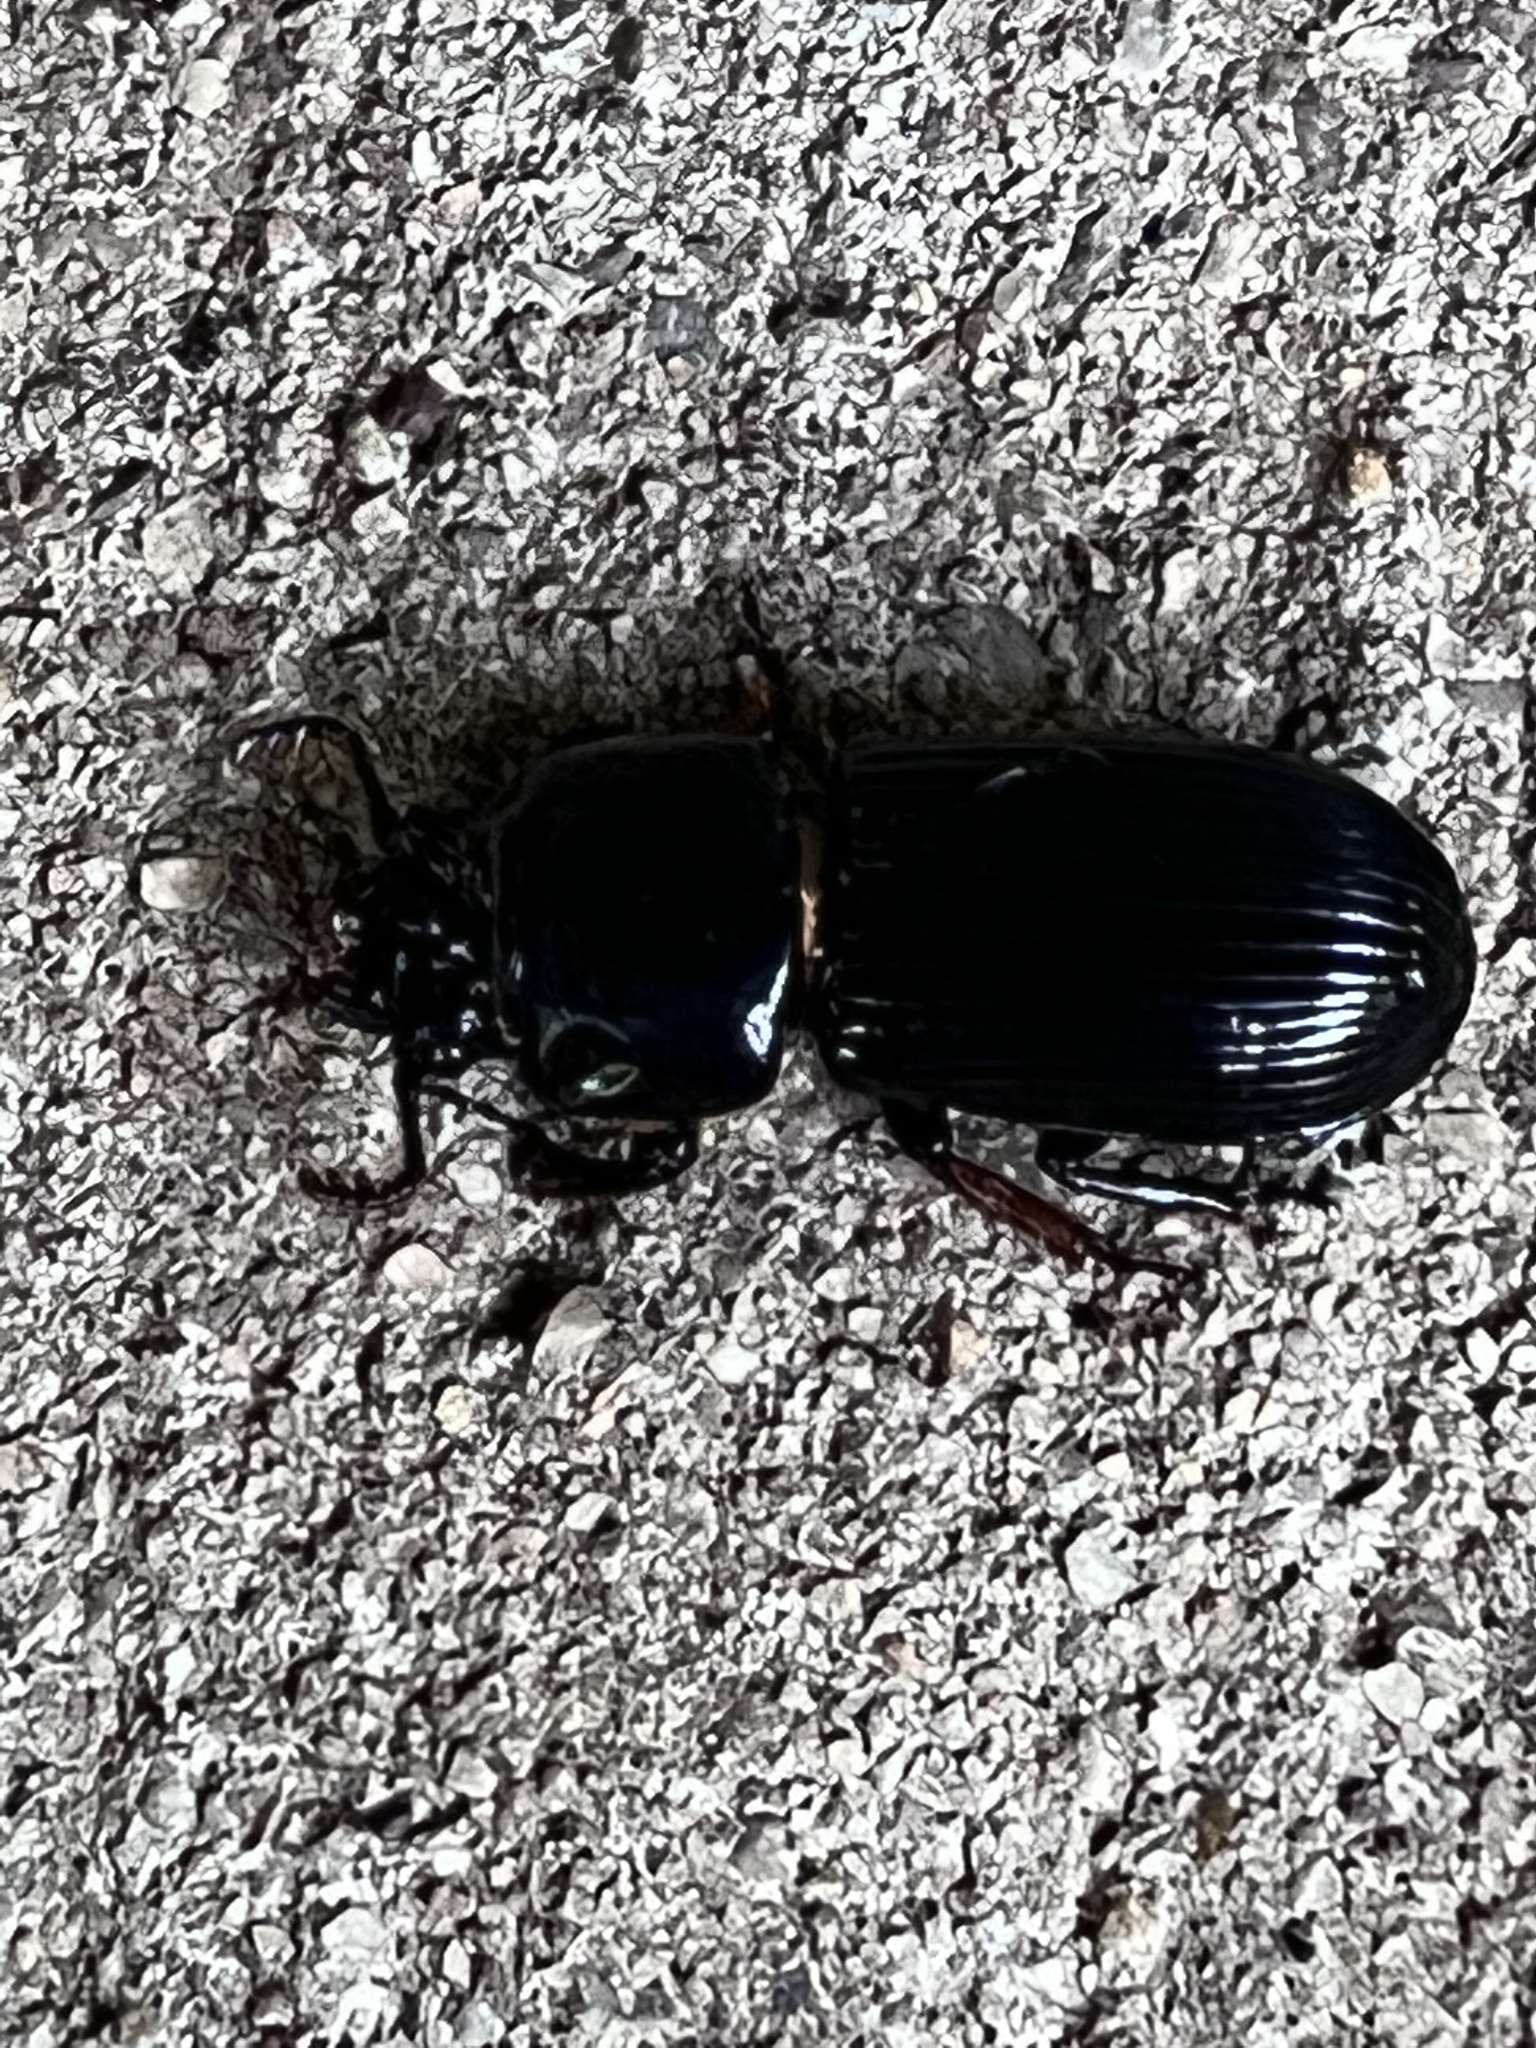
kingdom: Animalia
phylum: Arthropoda
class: Insecta
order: Coleoptera
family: Passalidae
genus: Odontotaenius
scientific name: Odontotaenius disjunctus
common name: Patent leather beetle
